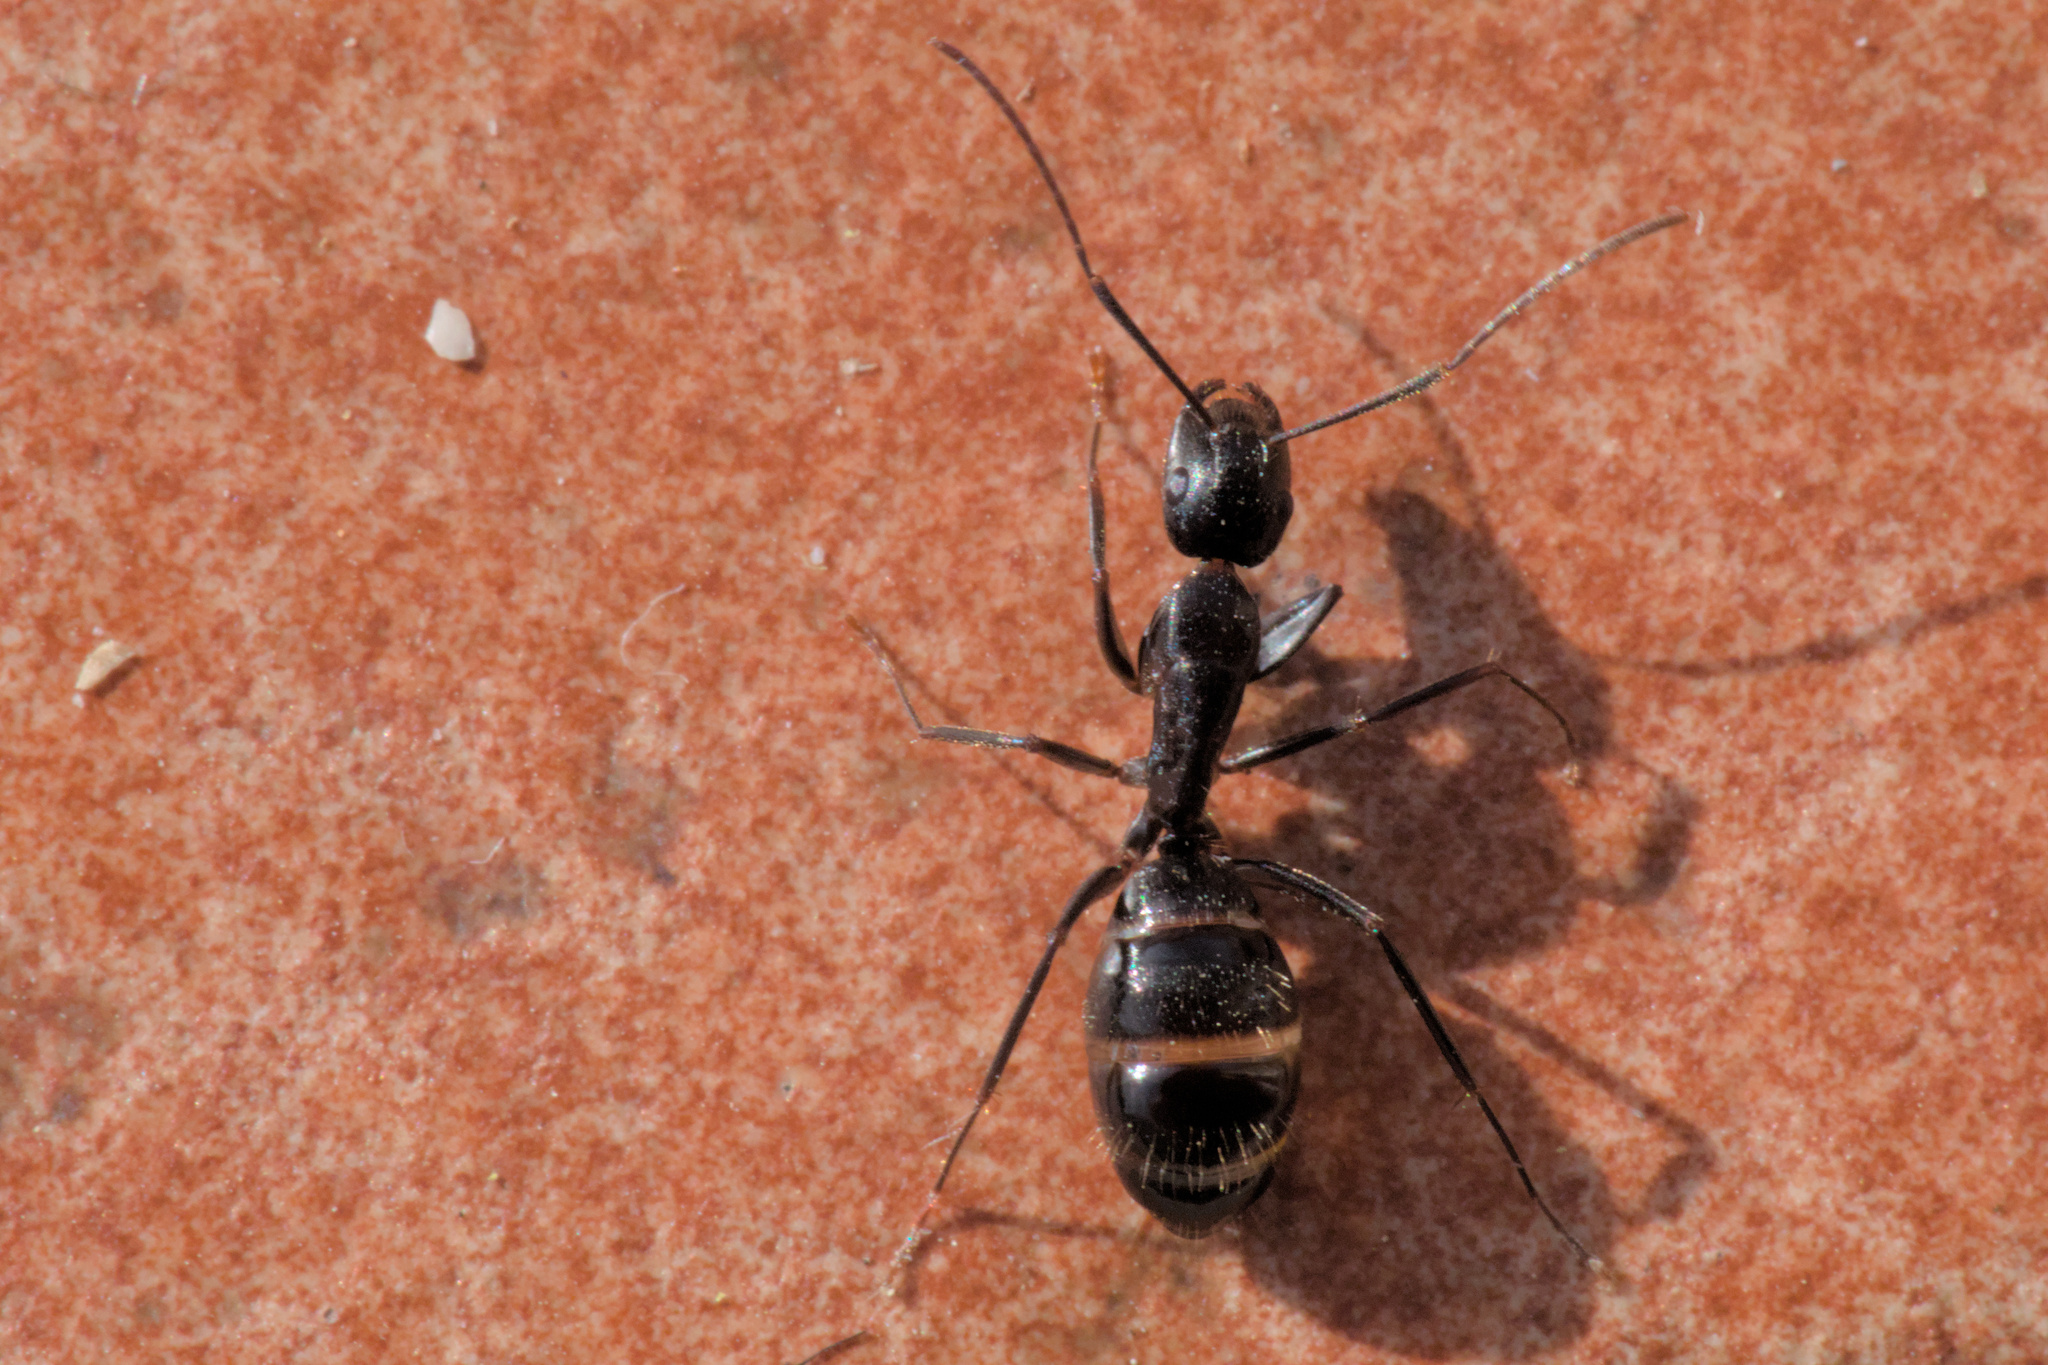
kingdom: Animalia
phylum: Arthropoda
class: Insecta
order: Hymenoptera
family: Formicidae
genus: Camponotus
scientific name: Camponotus aethiops
